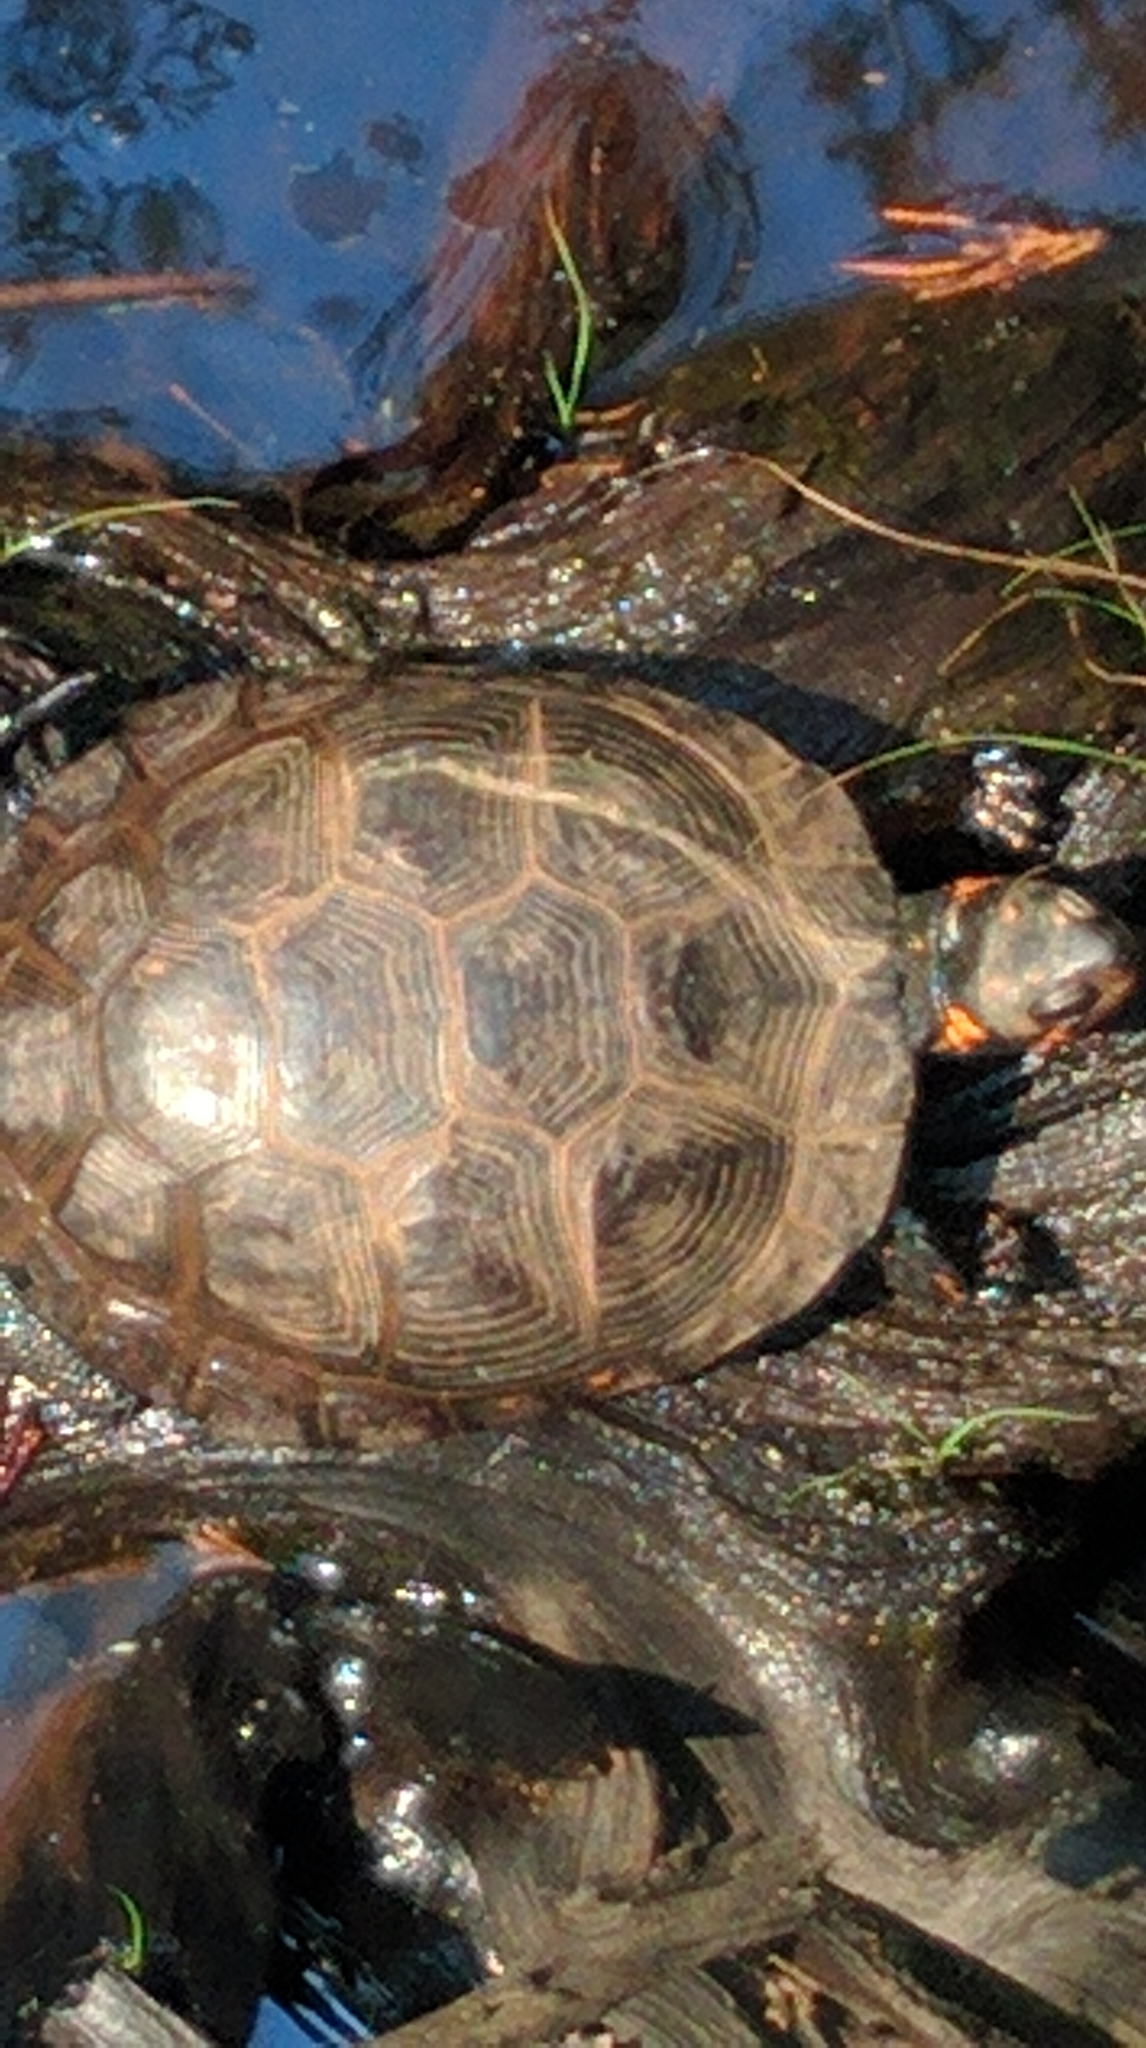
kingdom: Animalia
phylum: Chordata
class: Testudines
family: Emydidae
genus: Clemmys
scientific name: Clemmys guttata
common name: Spotted turtle
